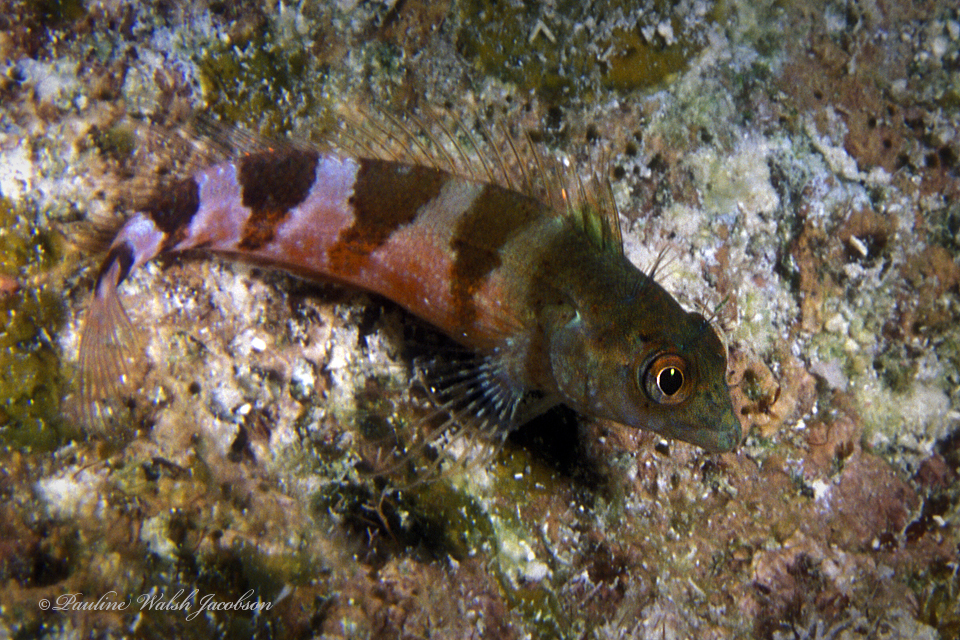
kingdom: Animalia
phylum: Chordata
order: Perciformes
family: Labrisomidae
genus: Malacoctenus
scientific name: Malacoctenus triangulatus
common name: Saddled blenny
